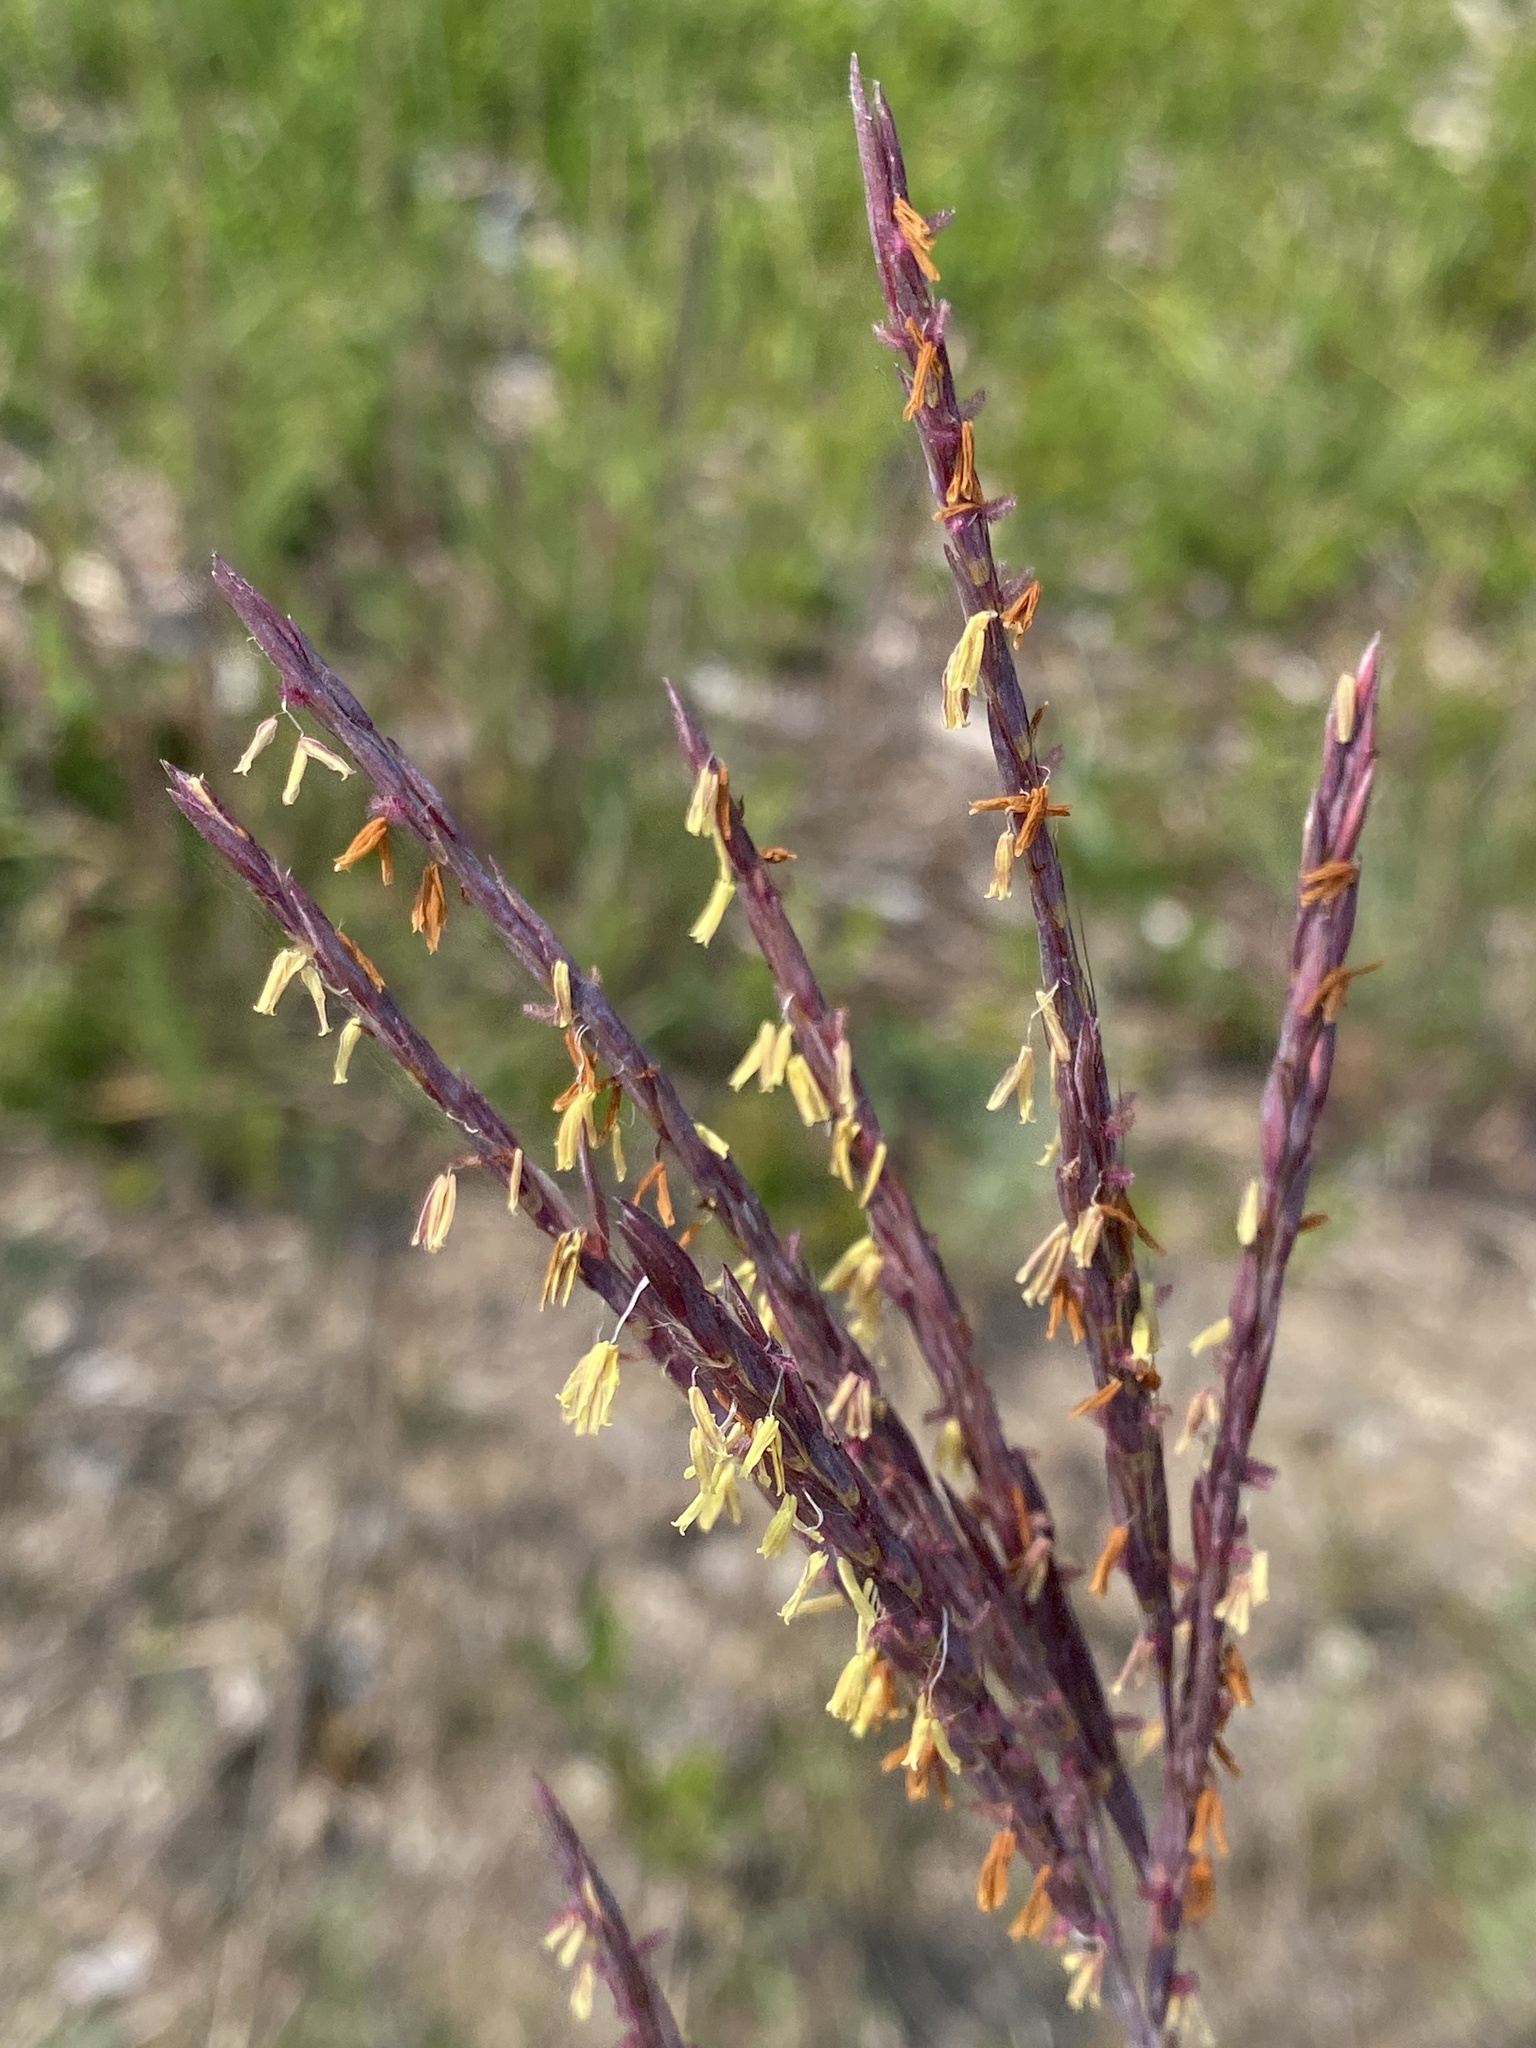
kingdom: Animalia
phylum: Arthropoda
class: Insecta
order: Lepidoptera
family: Nymphalidae
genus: Cercyonis
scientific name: Cercyonis pegala
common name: Common wood-nymph
